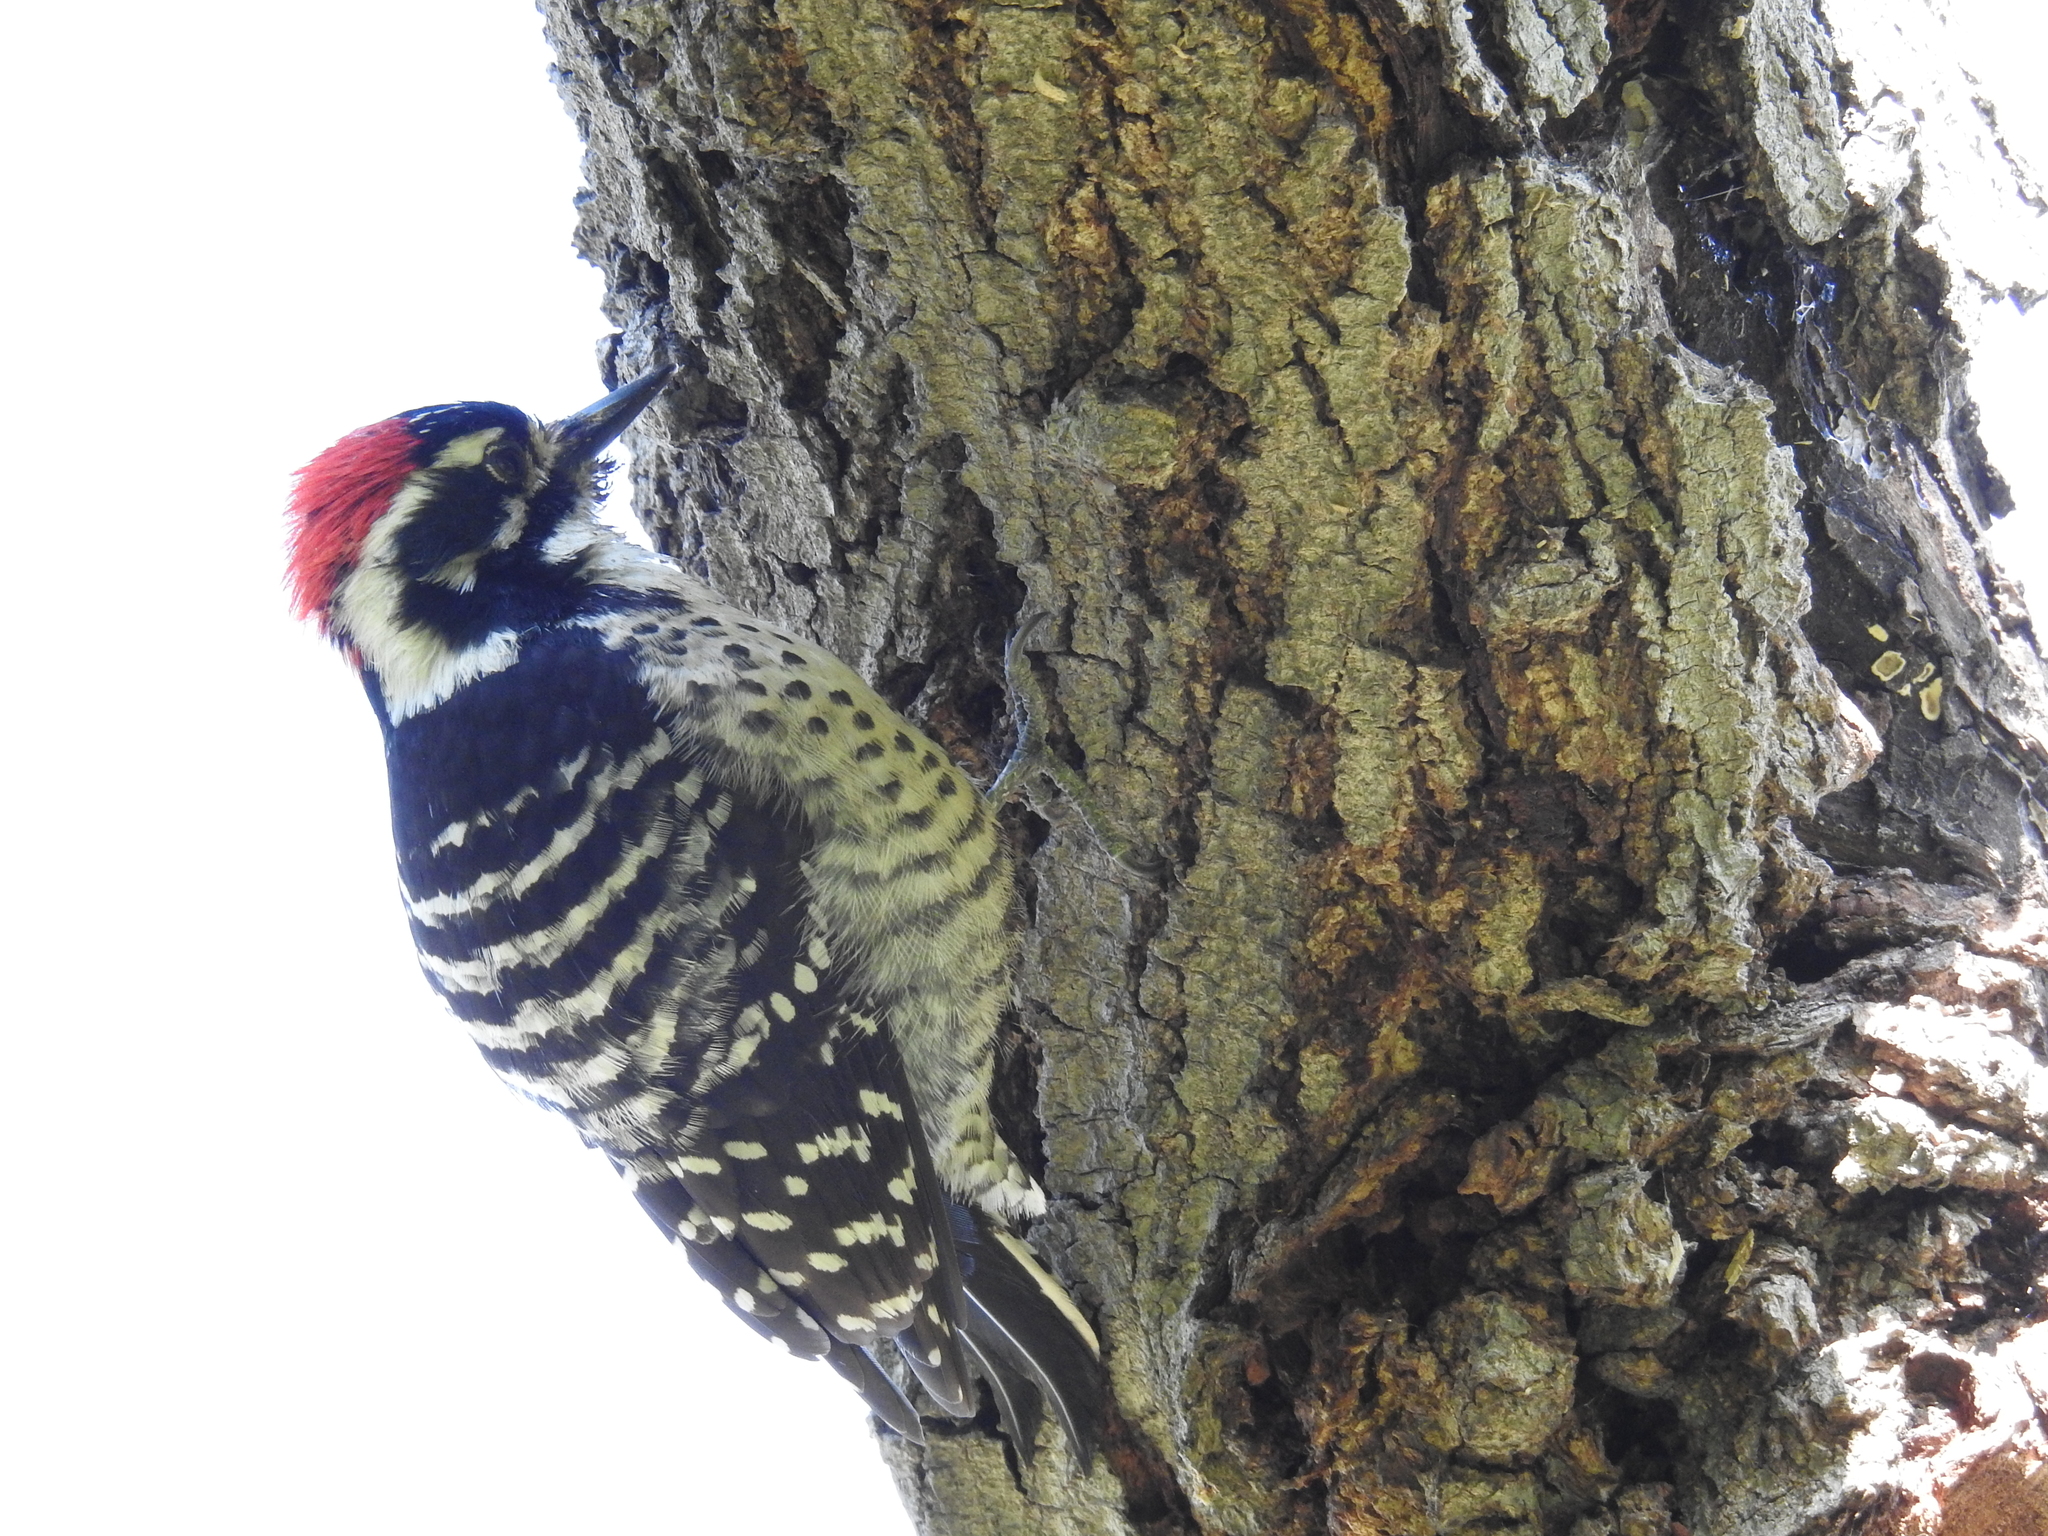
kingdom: Animalia
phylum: Chordata
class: Aves
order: Piciformes
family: Picidae
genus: Dryobates
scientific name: Dryobates nuttallii
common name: Nuttall's woodpecker
